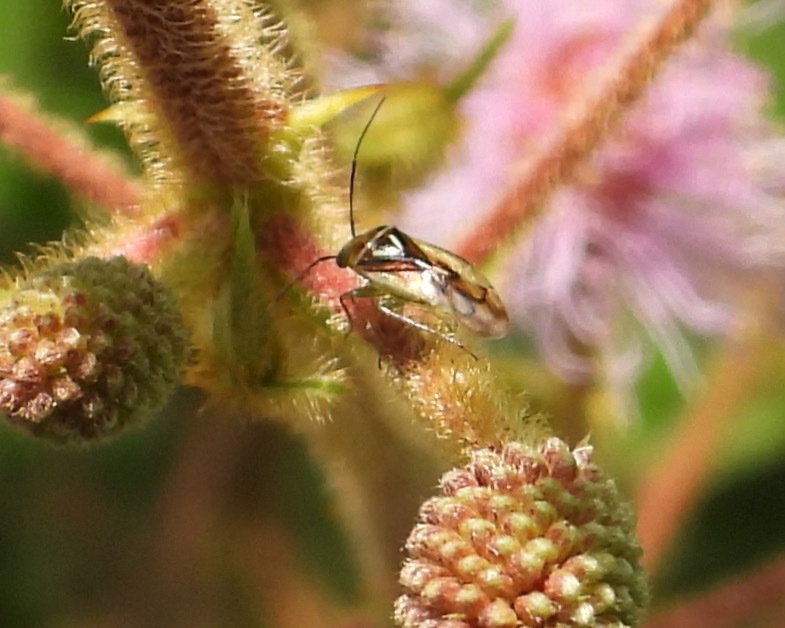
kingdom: Animalia
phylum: Arthropoda
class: Insecta
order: Hemiptera
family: Miridae
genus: Proba
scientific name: Proba vittiscutis
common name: Plant bug
